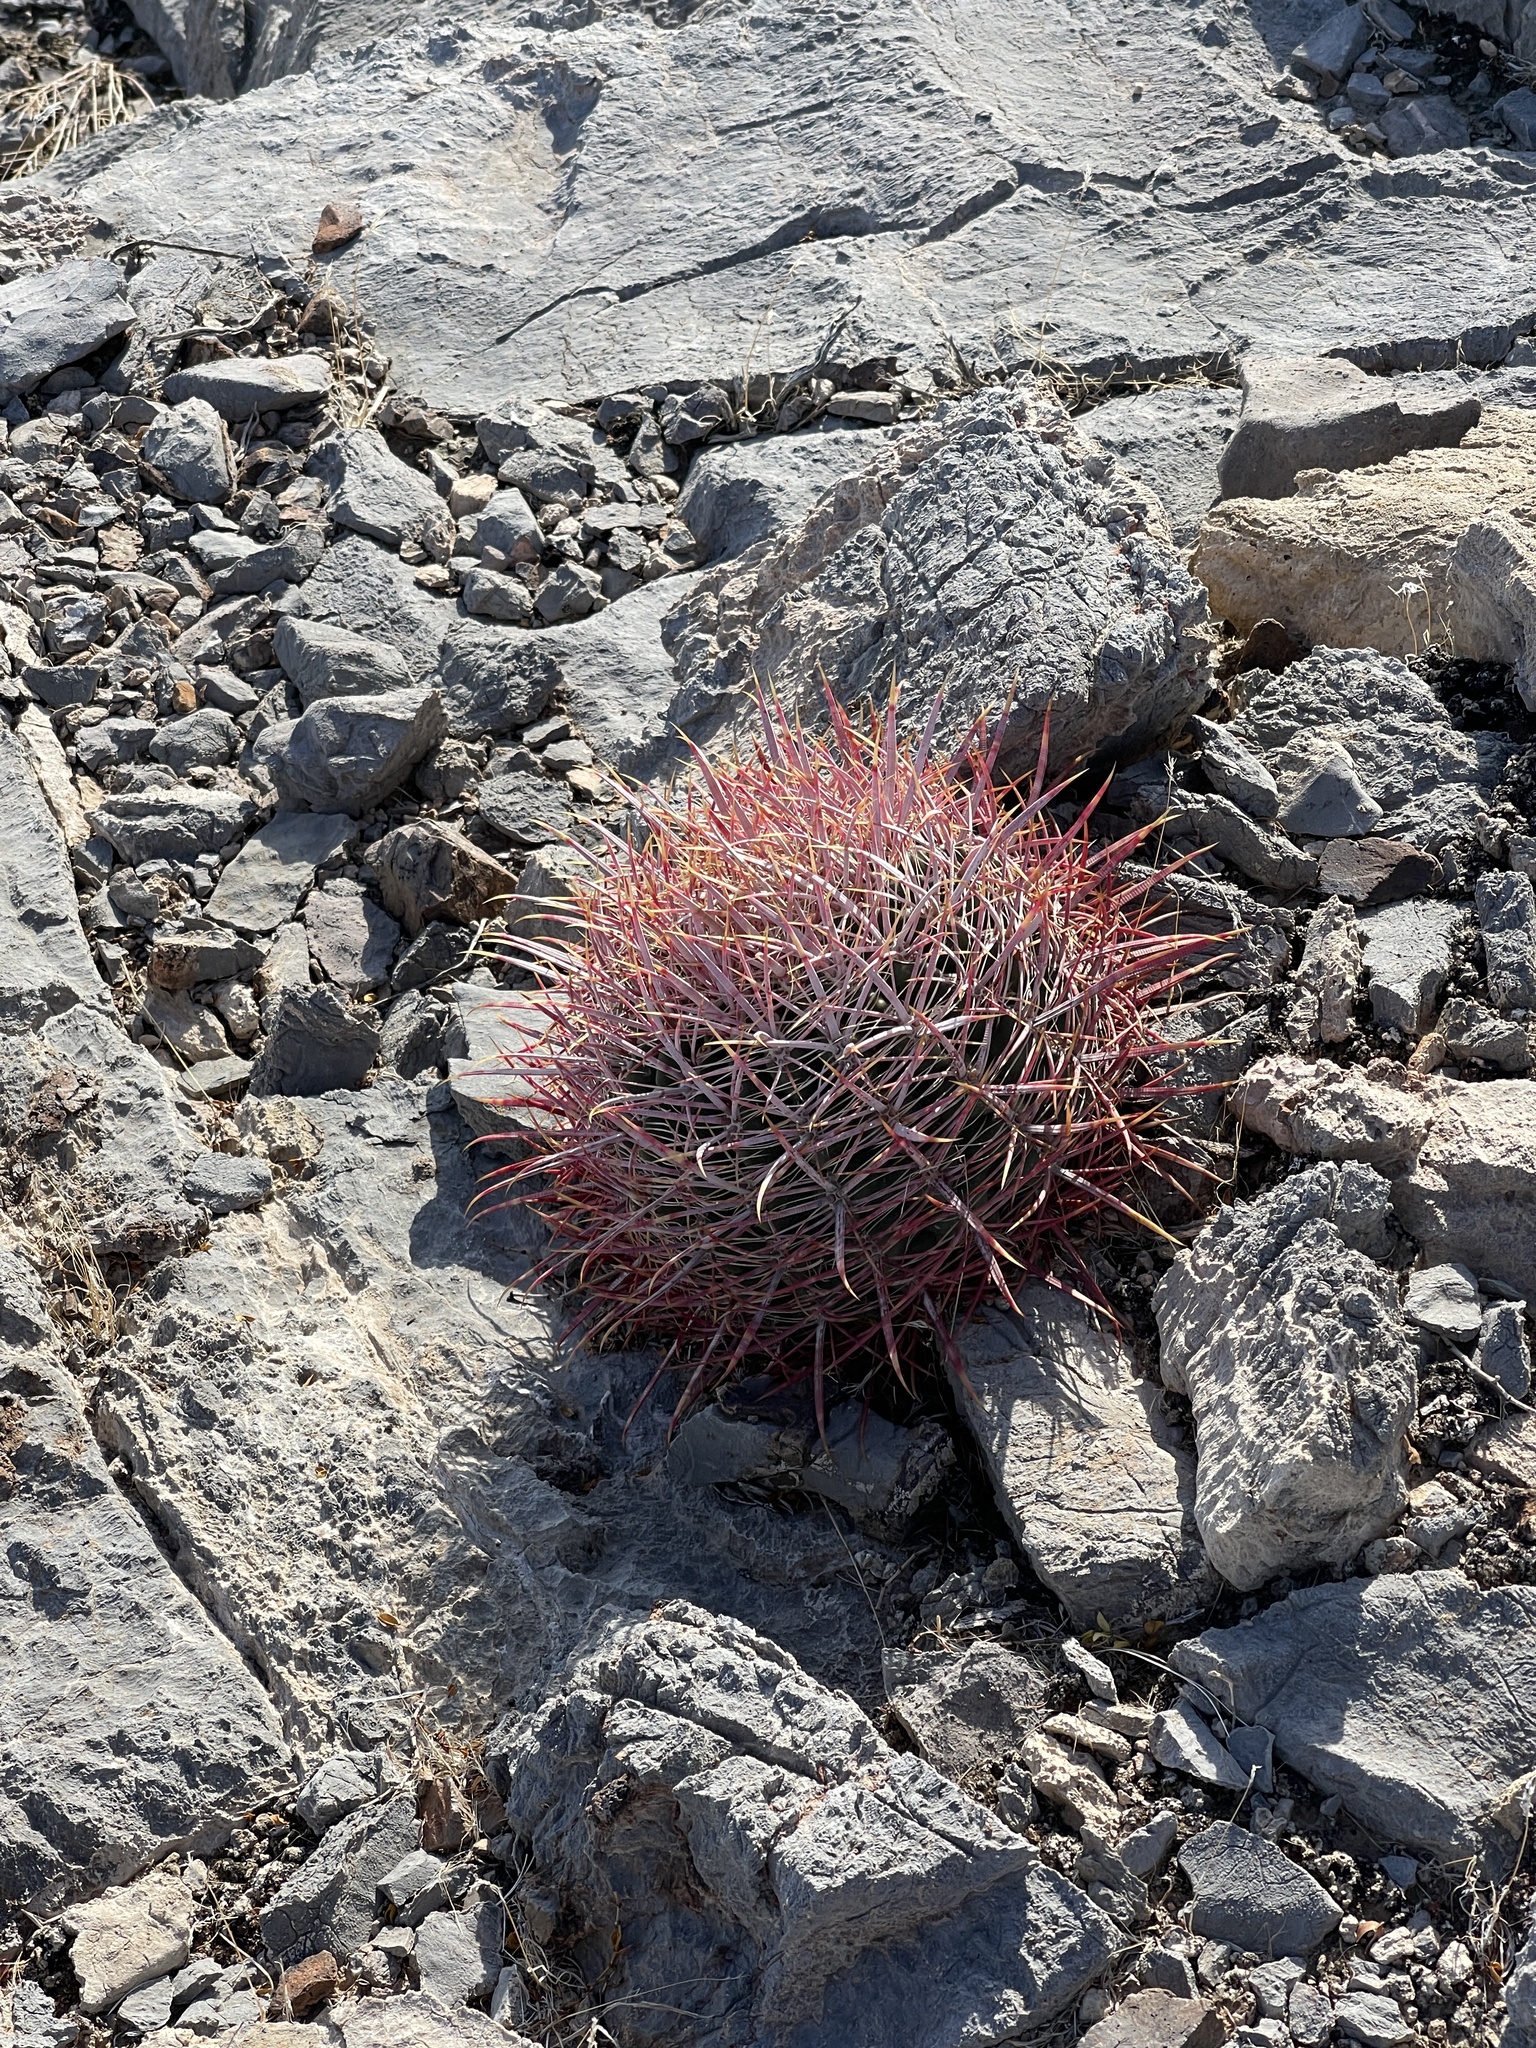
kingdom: Plantae
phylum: Tracheophyta
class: Magnoliopsida
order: Caryophyllales
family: Cactaceae
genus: Ferocactus
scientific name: Ferocactus cylindraceus
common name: California barrel cactus
